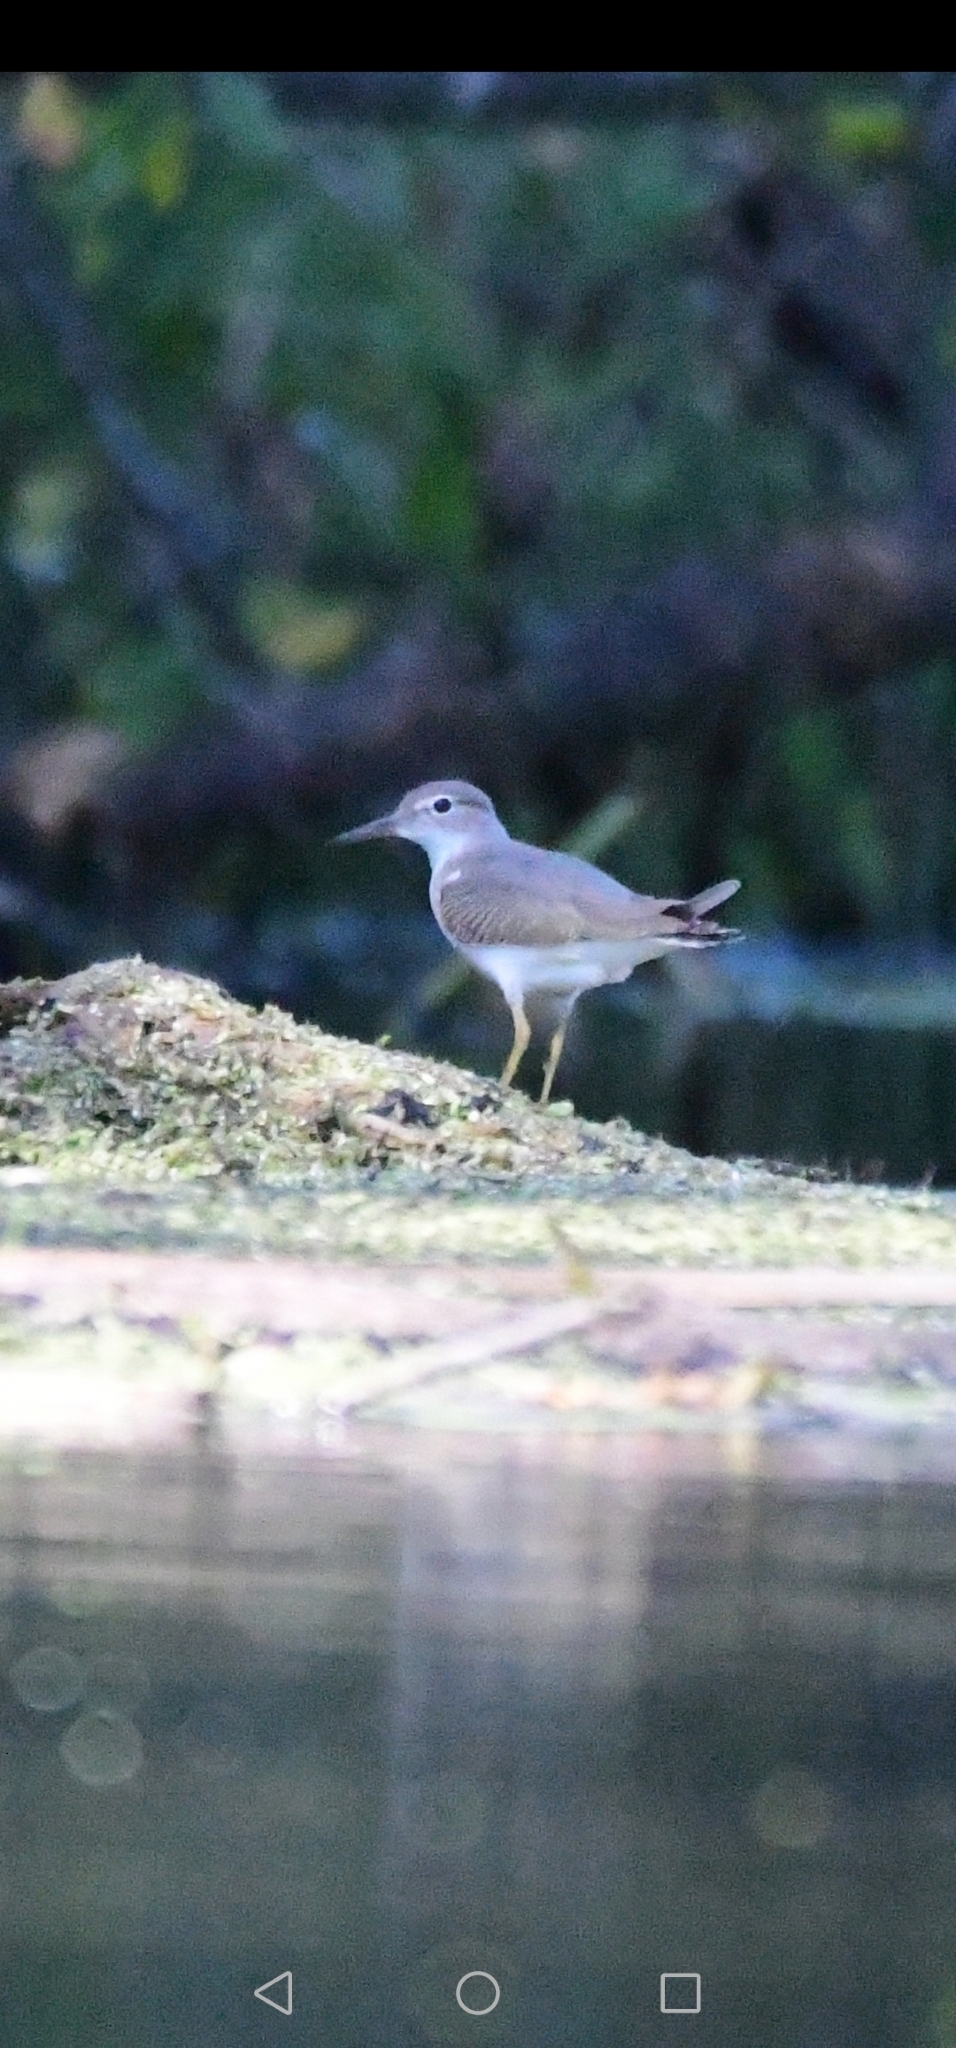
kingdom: Animalia
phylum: Chordata
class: Aves
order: Charadriiformes
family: Scolopacidae
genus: Actitis
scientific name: Actitis macularius
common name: Spotted sandpiper
